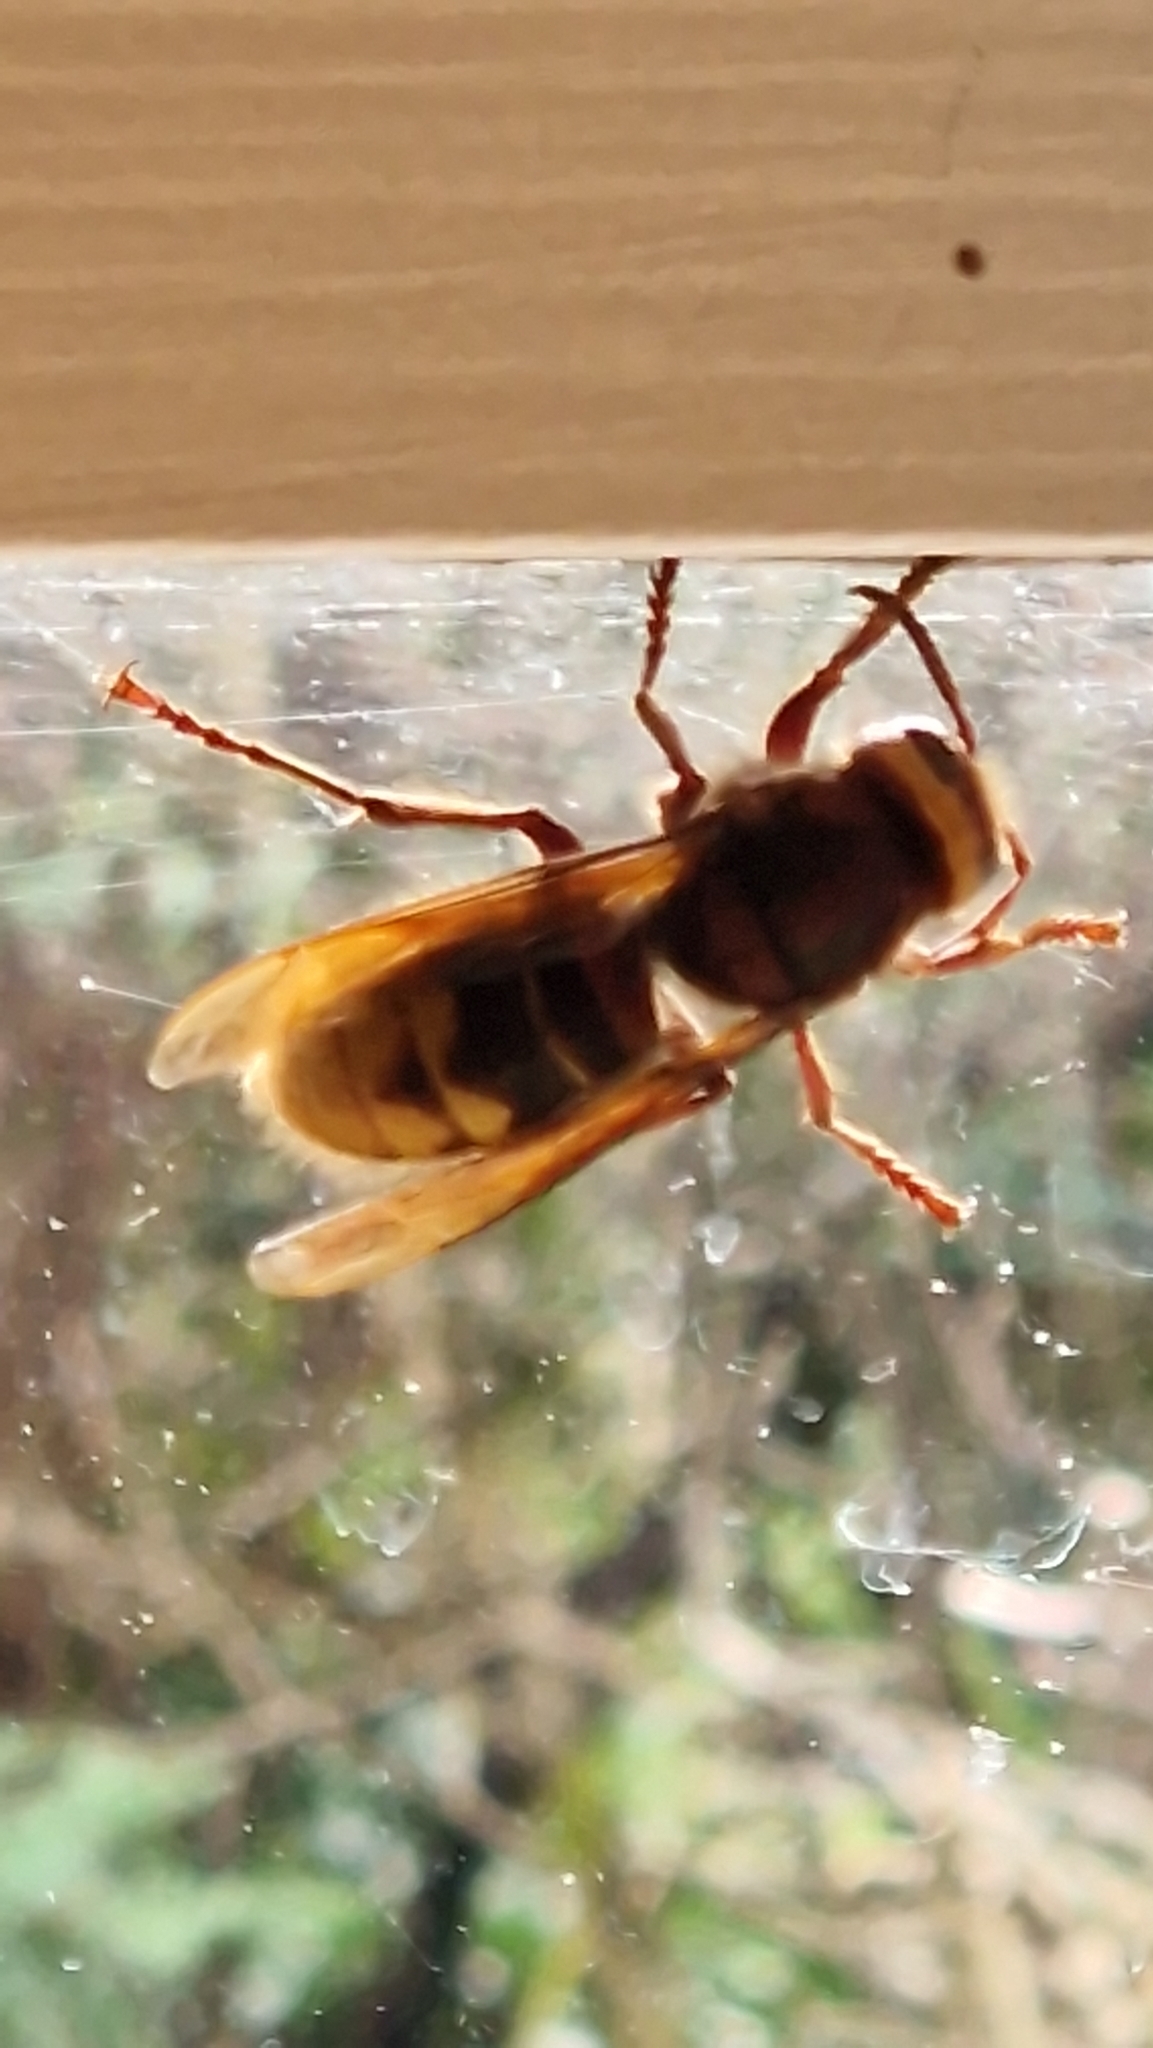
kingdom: Animalia
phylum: Arthropoda
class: Insecta
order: Hymenoptera
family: Vespidae
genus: Vespa
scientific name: Vespa crabro
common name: Hornet
